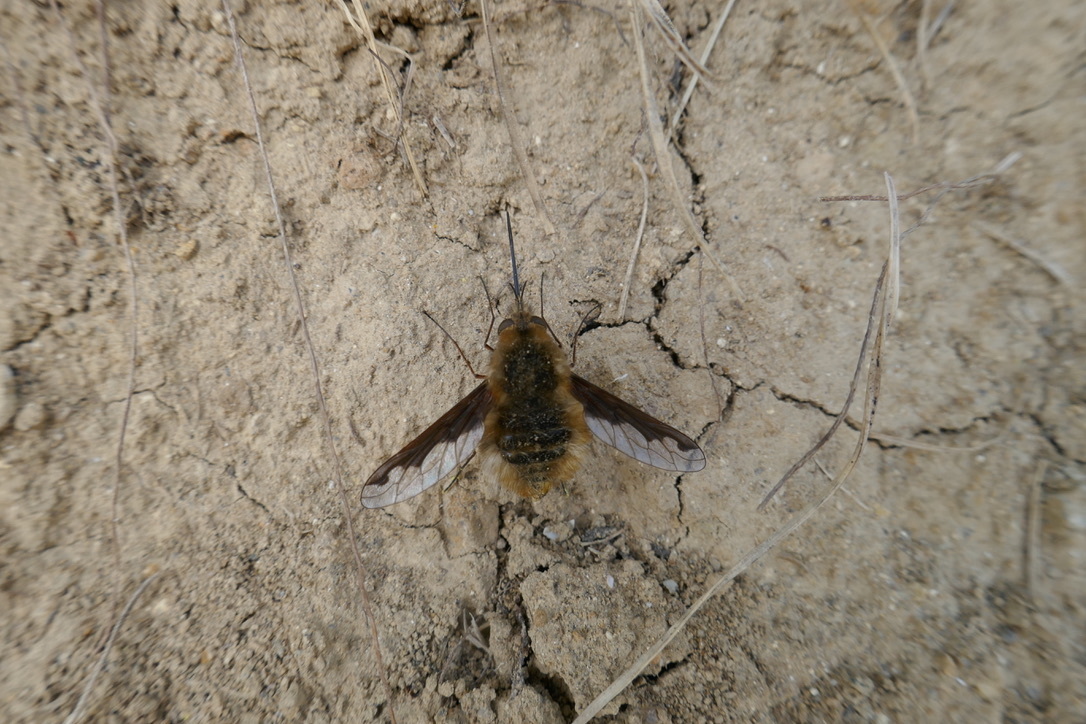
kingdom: Animalia
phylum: Arthropoda
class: Insecta
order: Diptera
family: Bombyliidae
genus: Bombylius
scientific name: Bombylius major
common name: Bee fly
